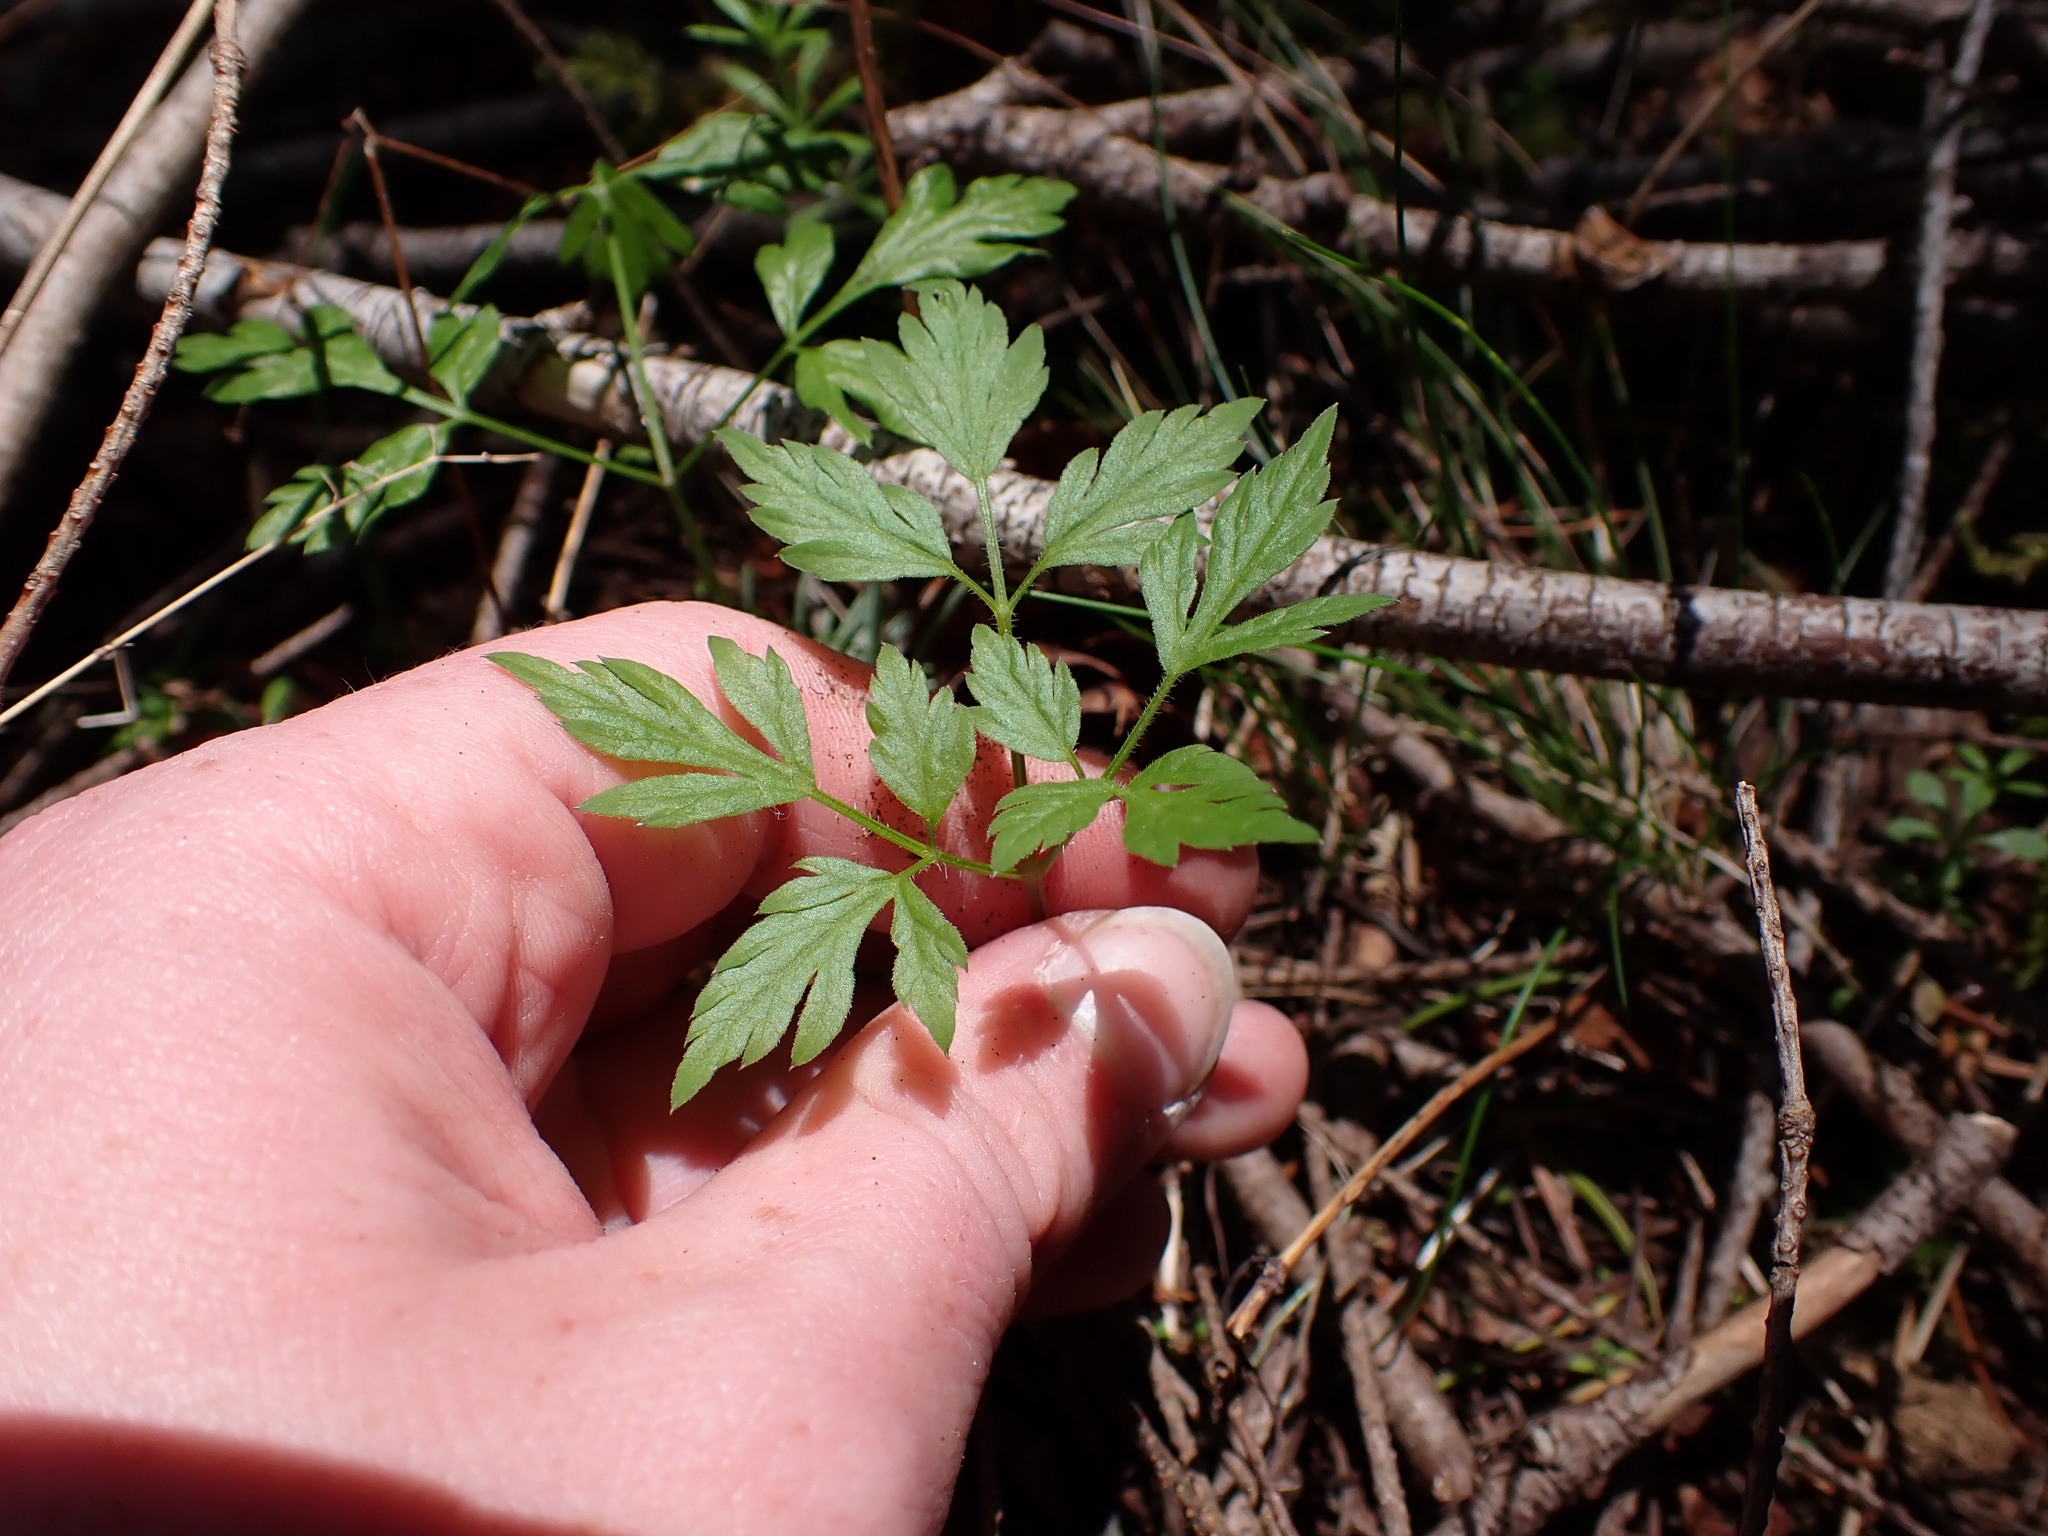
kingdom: Plantae
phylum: Tracheophyta
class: Magnoliopsida
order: Apiales
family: Apiaceae
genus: Osmorhiza
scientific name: Osmorhiza berteroi
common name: Mountain sweet cicely
